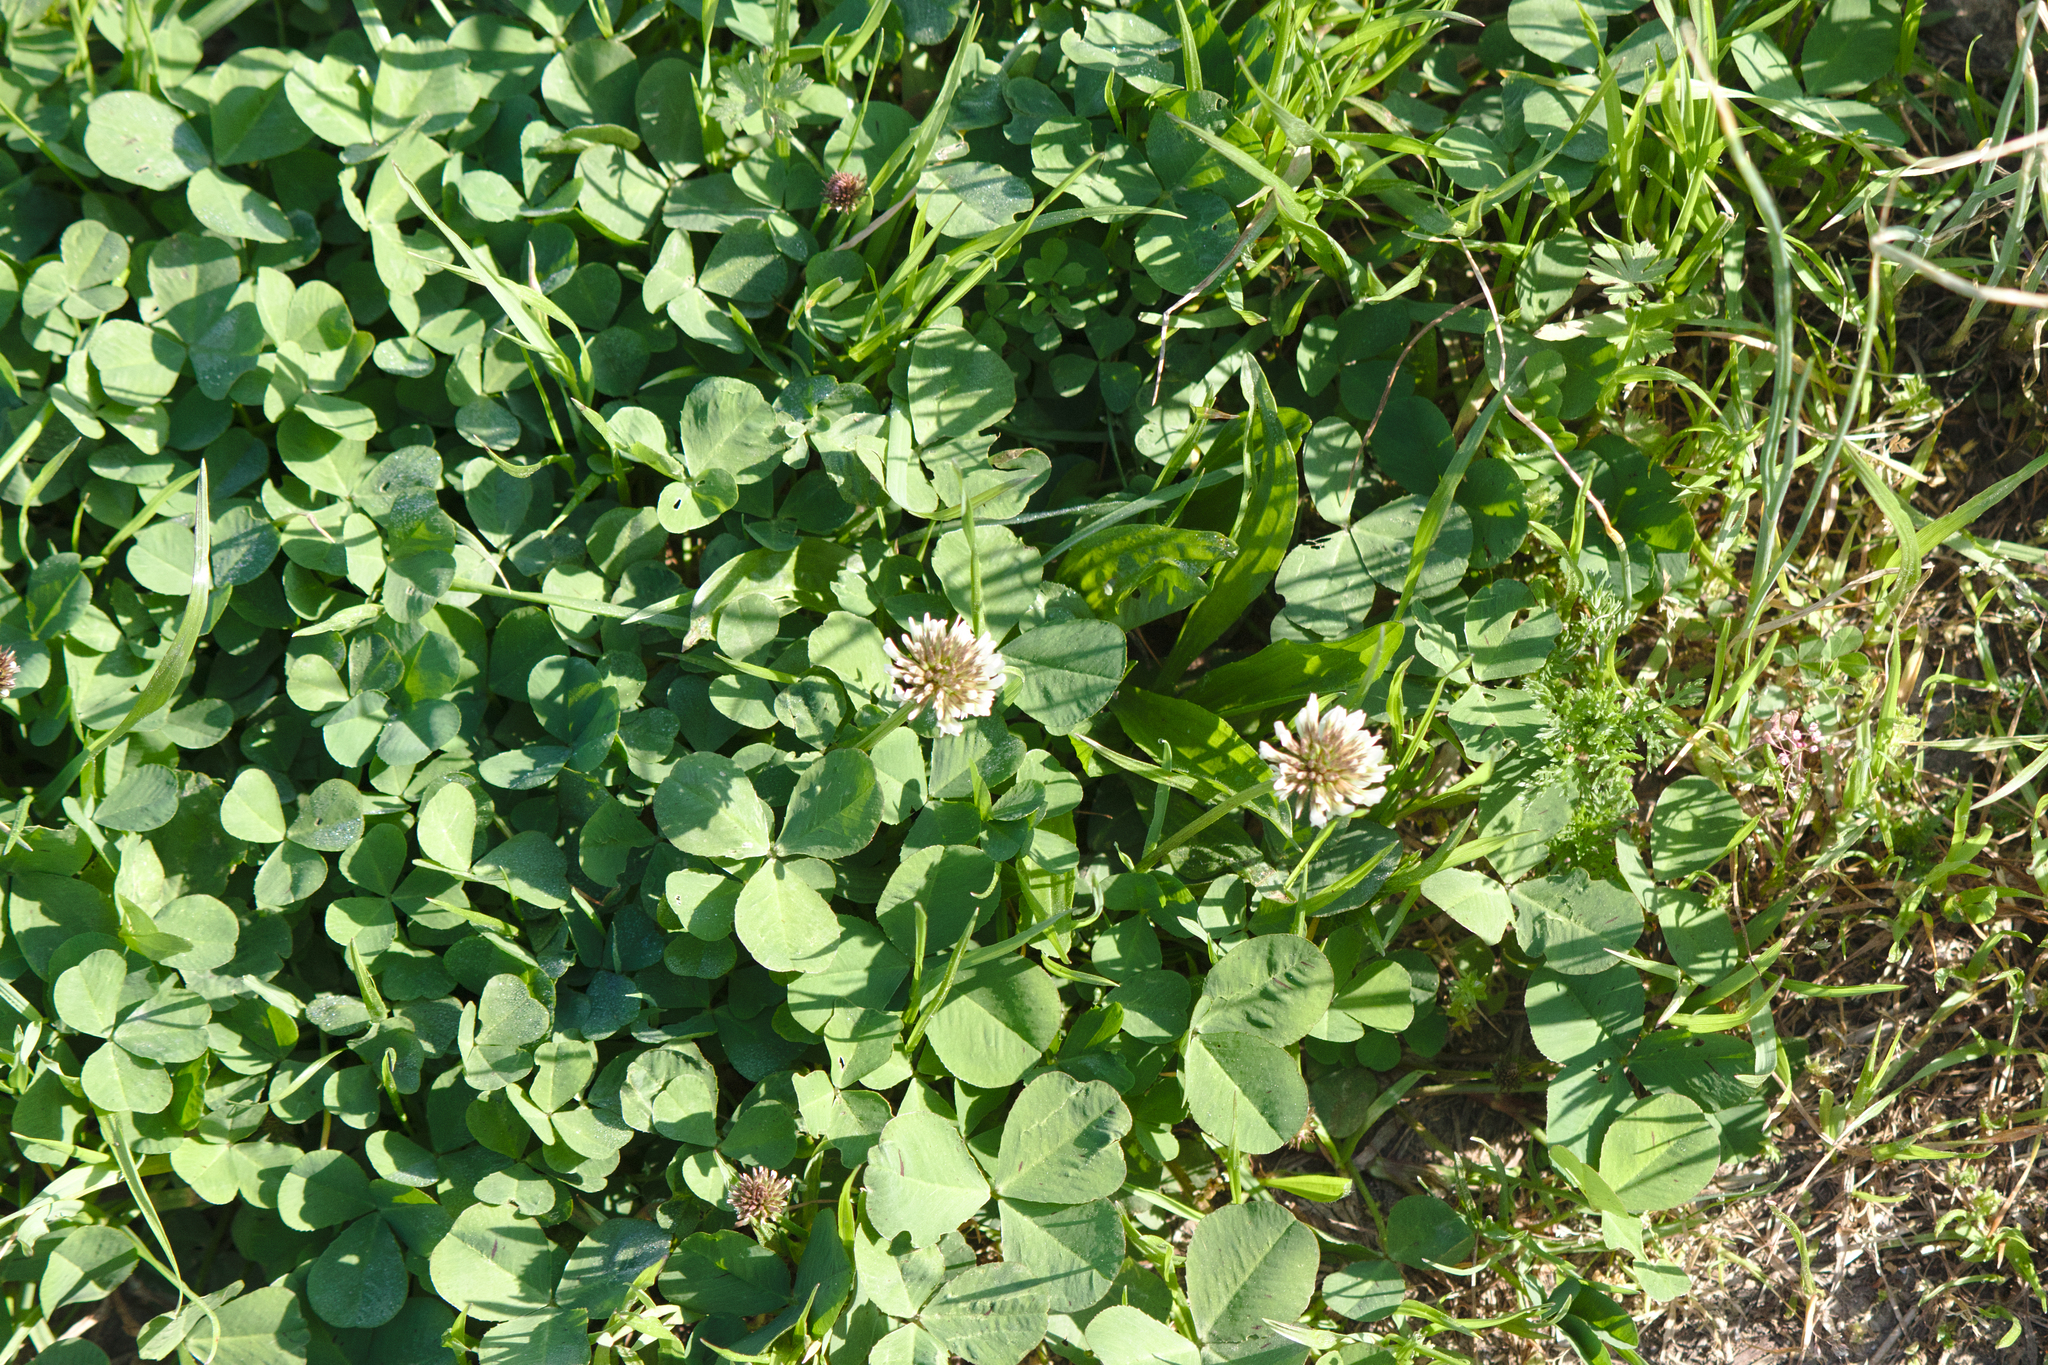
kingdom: Plantae
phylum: Tracheophyta
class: Magnoliopsida
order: Fabales
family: Fabaceae
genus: Trifolium
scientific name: Trifolium repens
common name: White clover
